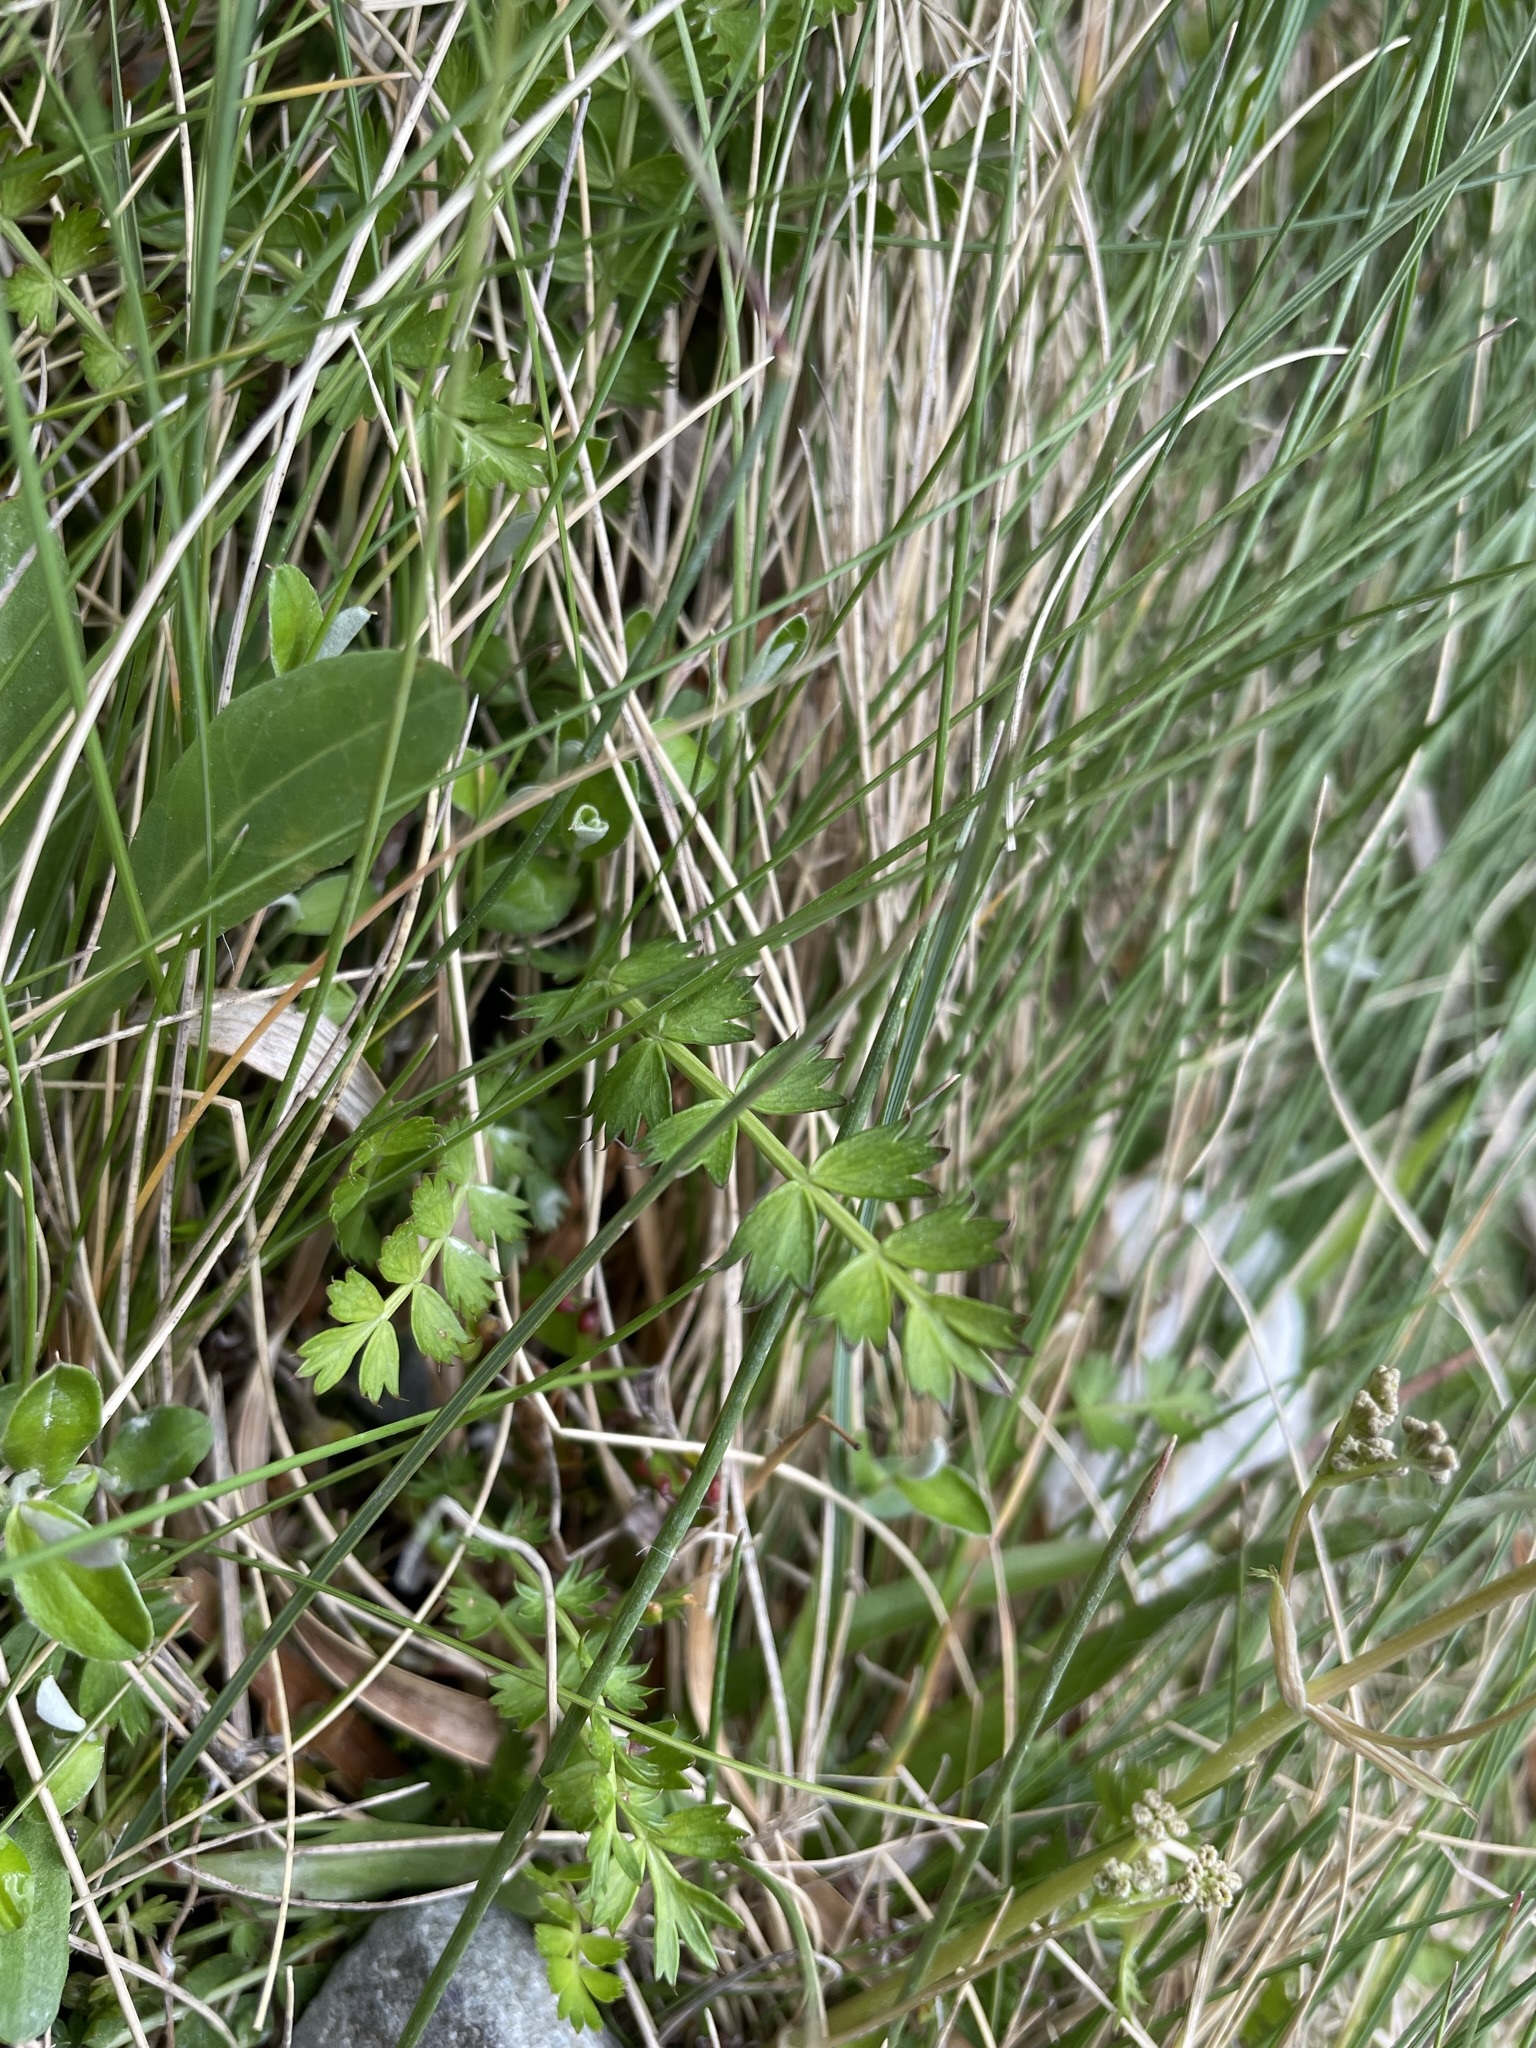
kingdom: Plantae
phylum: Tracheophyta
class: Magnoliopsida
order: Apiales
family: Apiaceae
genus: Anisotome
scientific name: Anisotome aromatica
